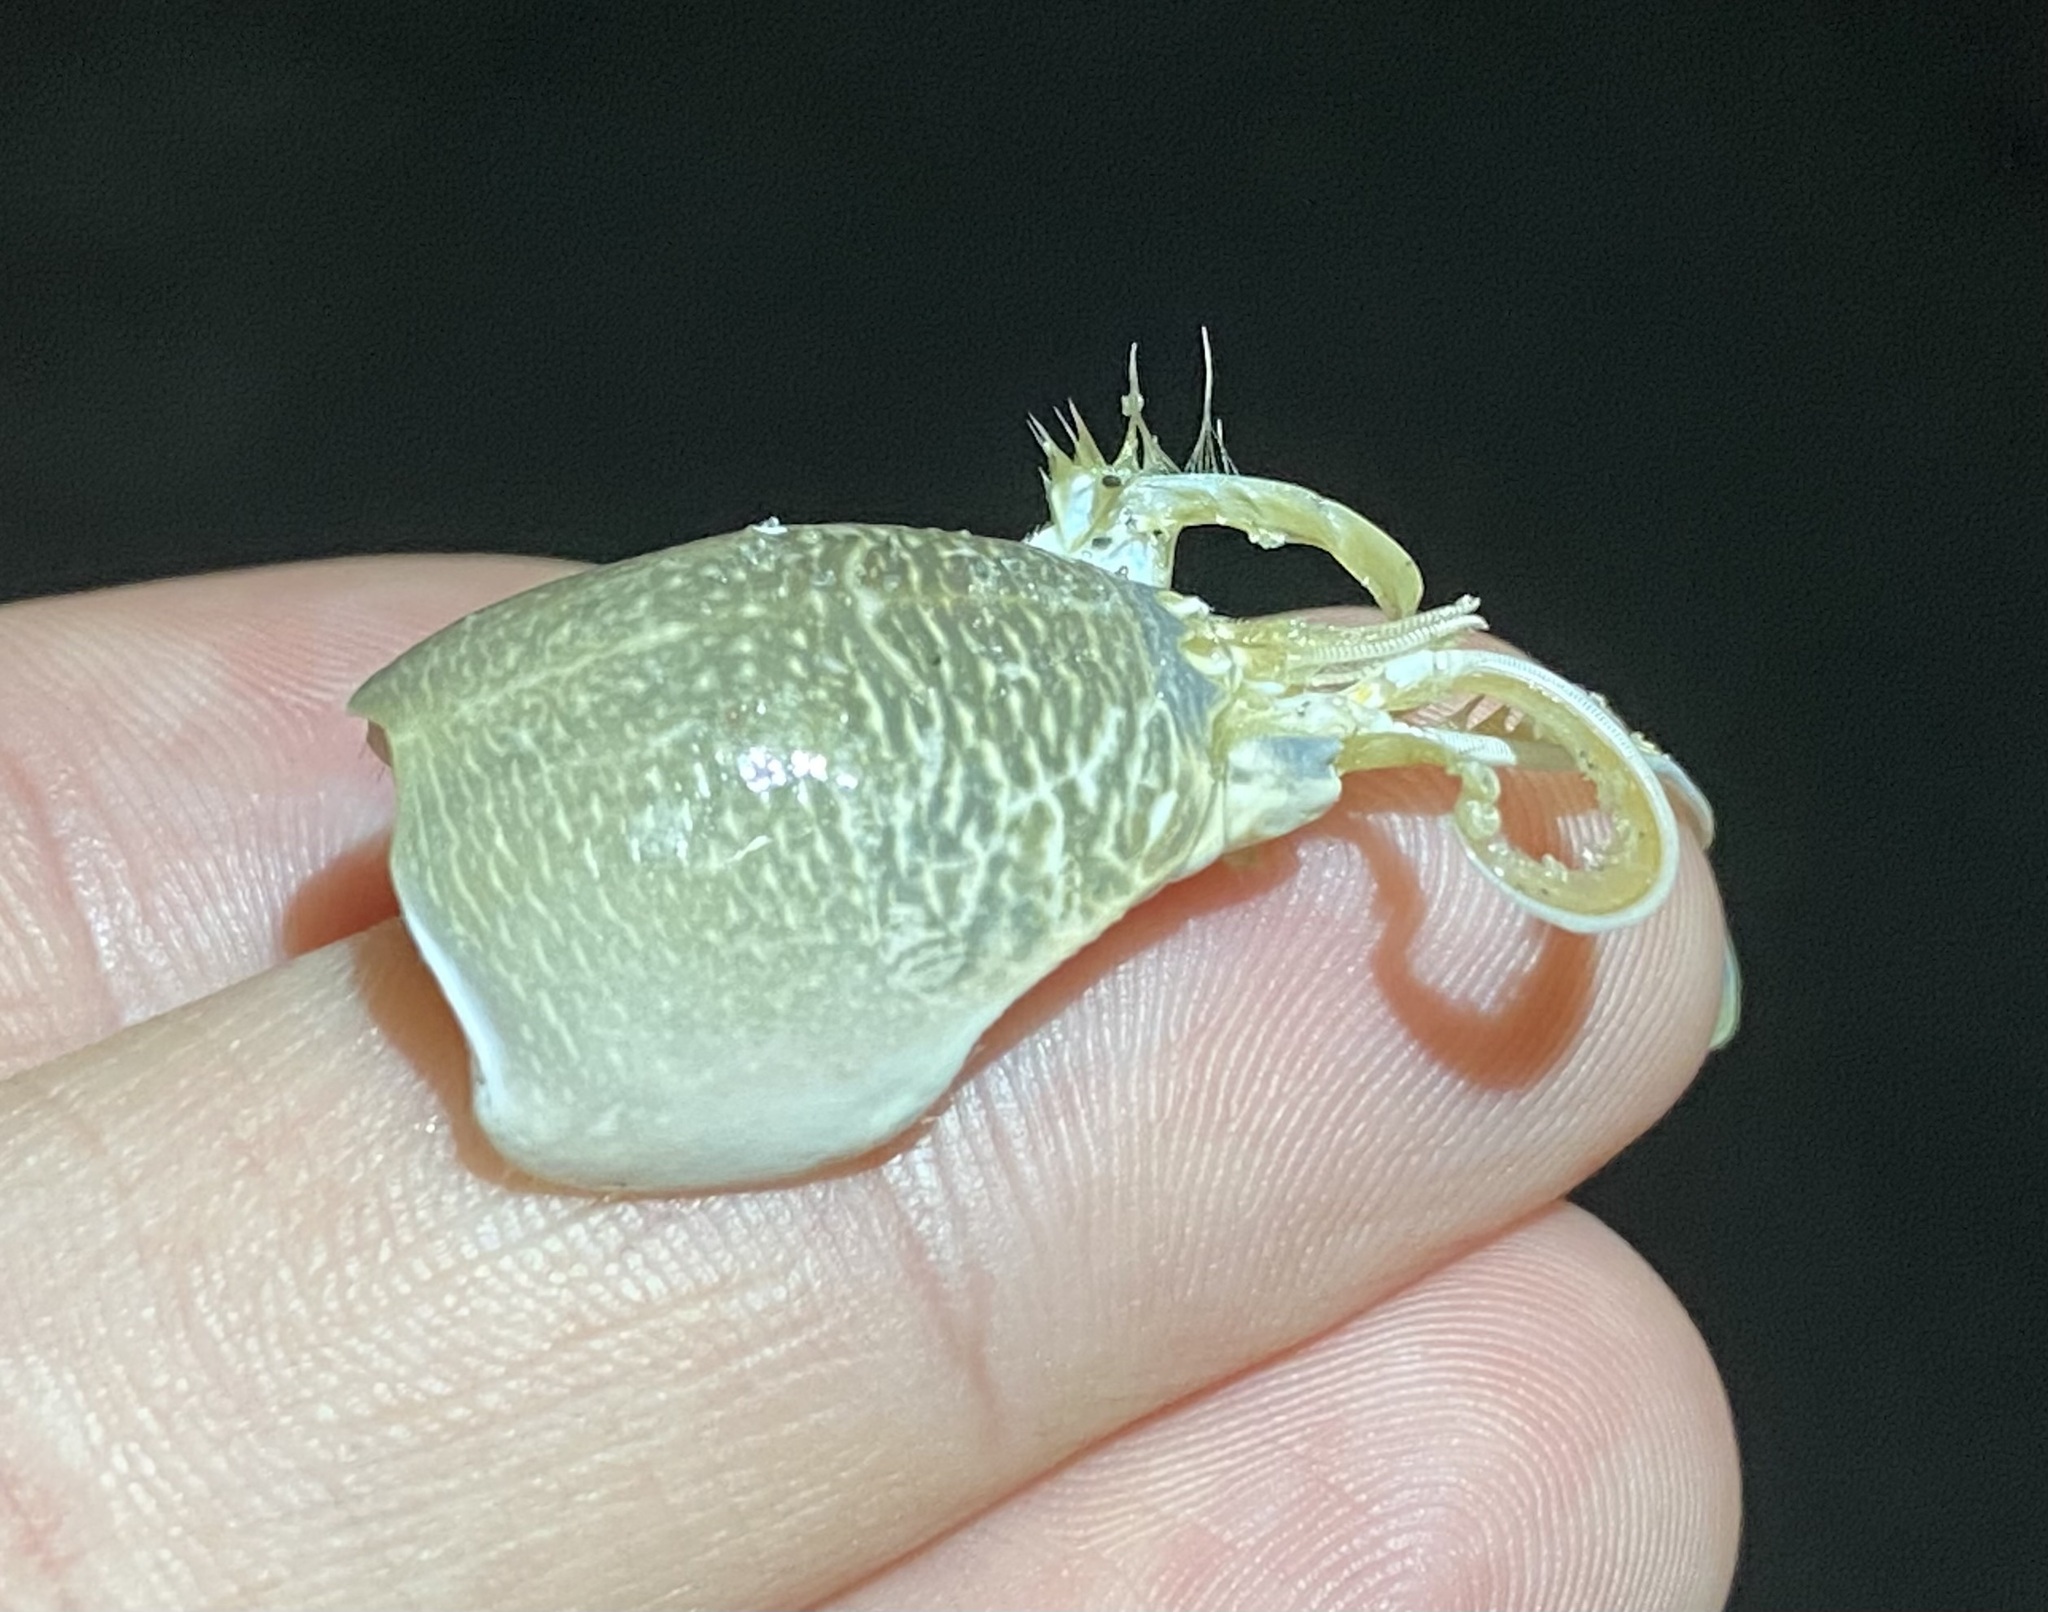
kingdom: Animalia
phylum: Arthropoda
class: Malacostraca
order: Decapoda
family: Hippidae
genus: Emerita
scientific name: Emerita talpoida
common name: Atlantic sand crab
